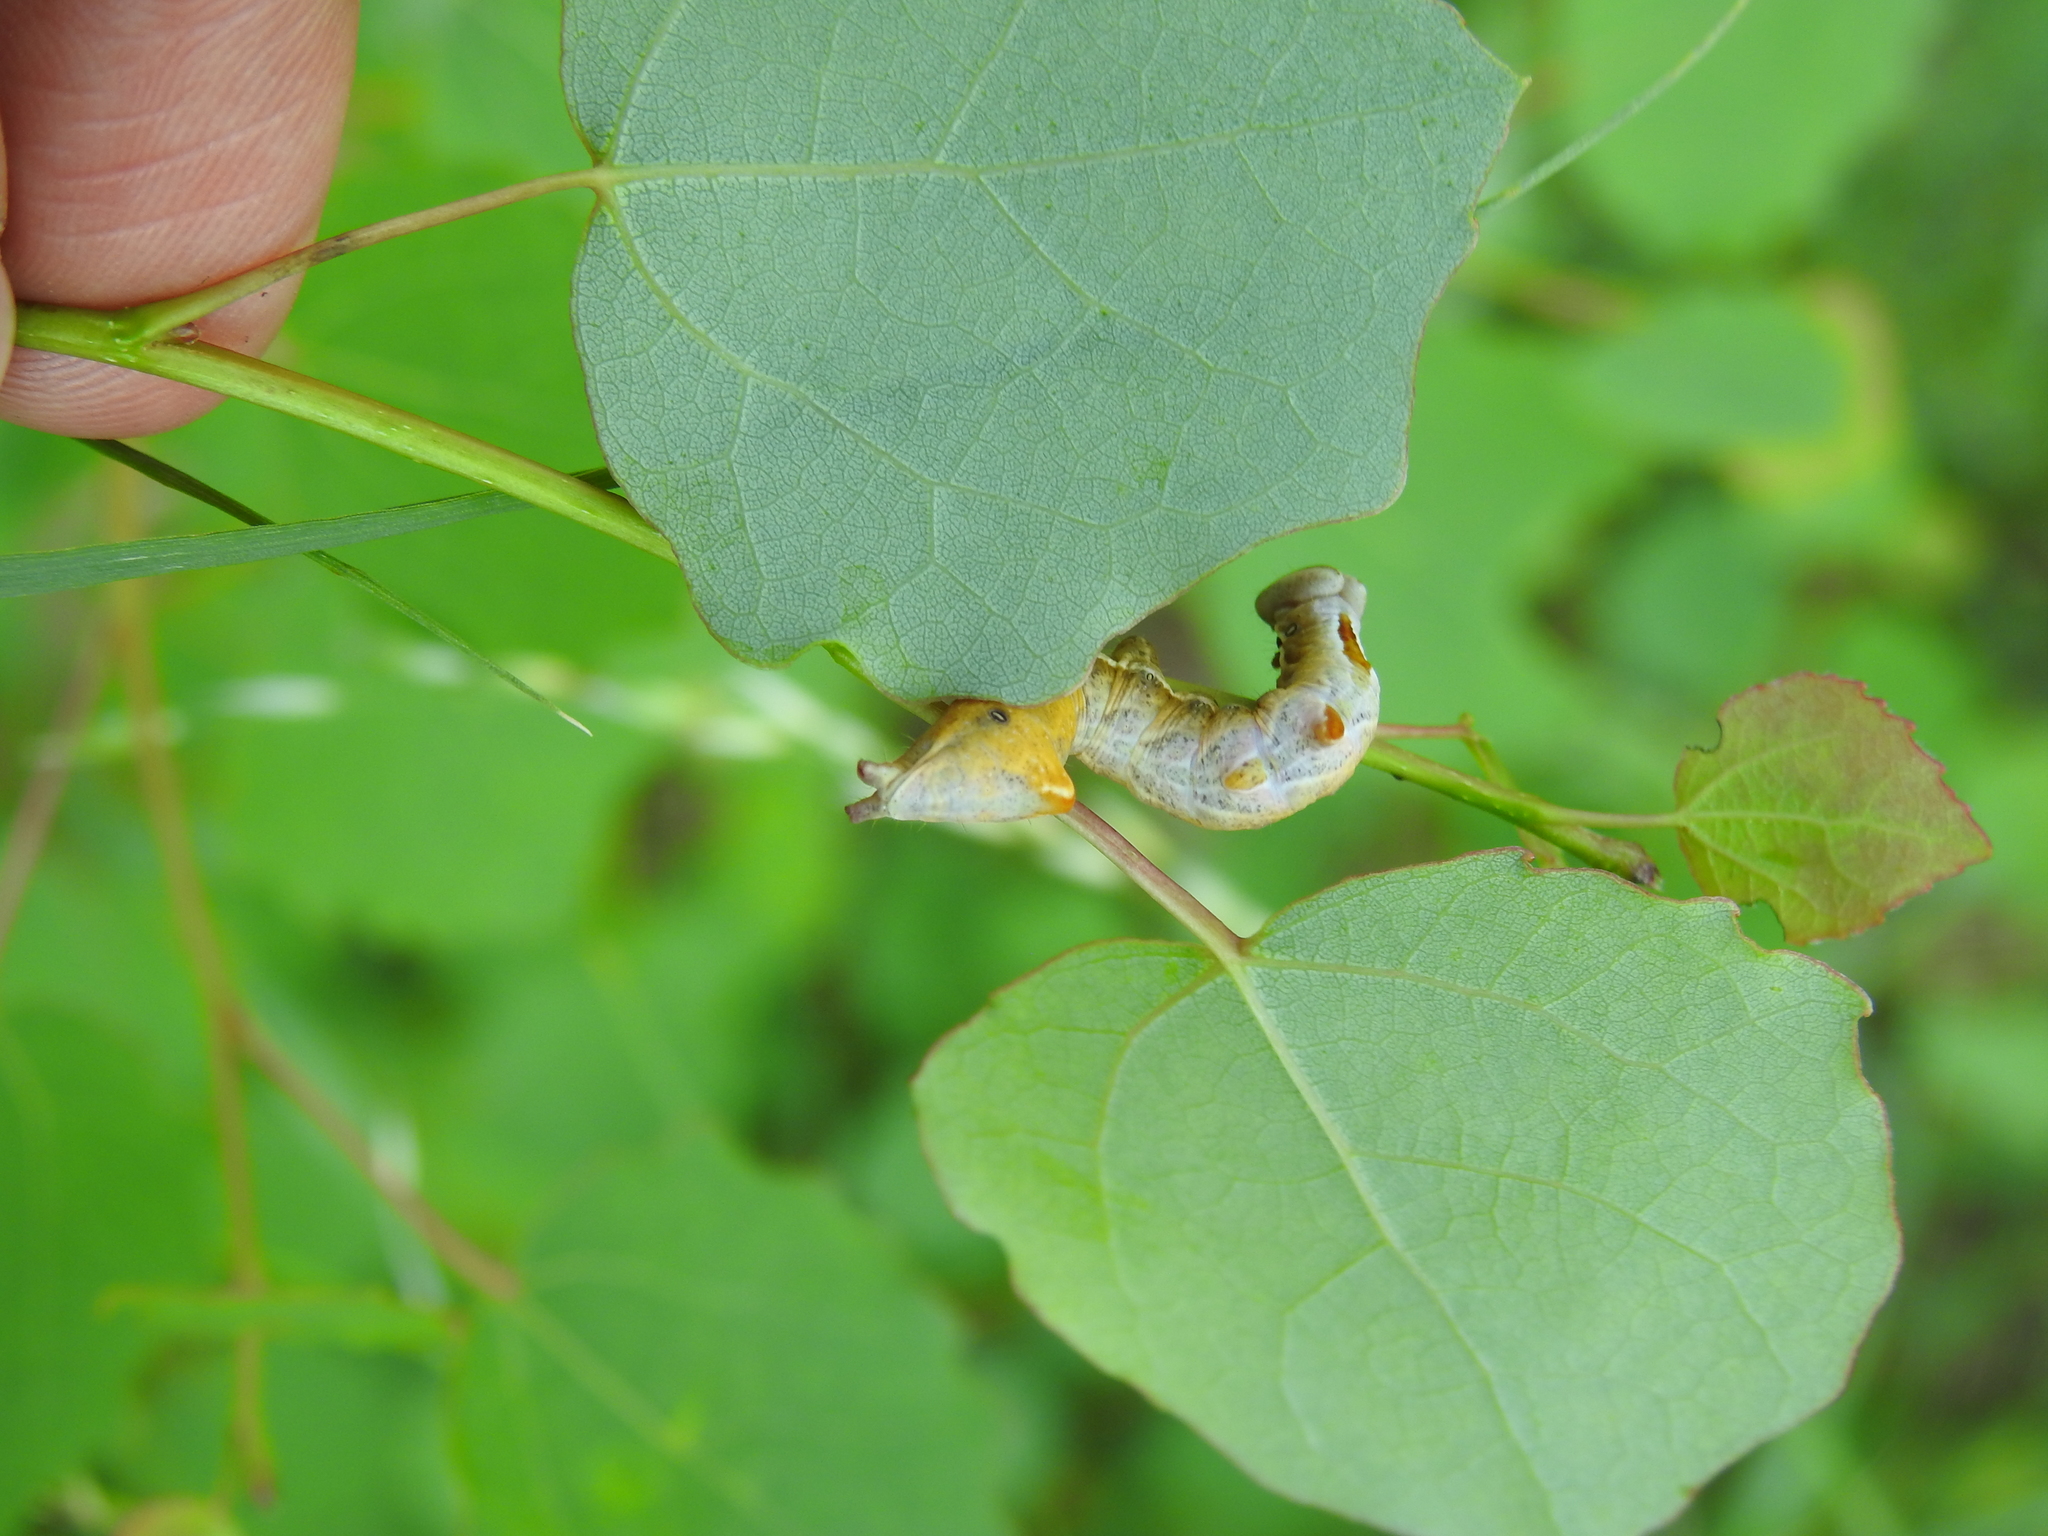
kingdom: Animalia
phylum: Arthropoda
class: Insecta
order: Lepidoptera
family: Notodontidae
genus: Notodonta
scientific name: Notodonta ziczac
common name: Pebble prominent
